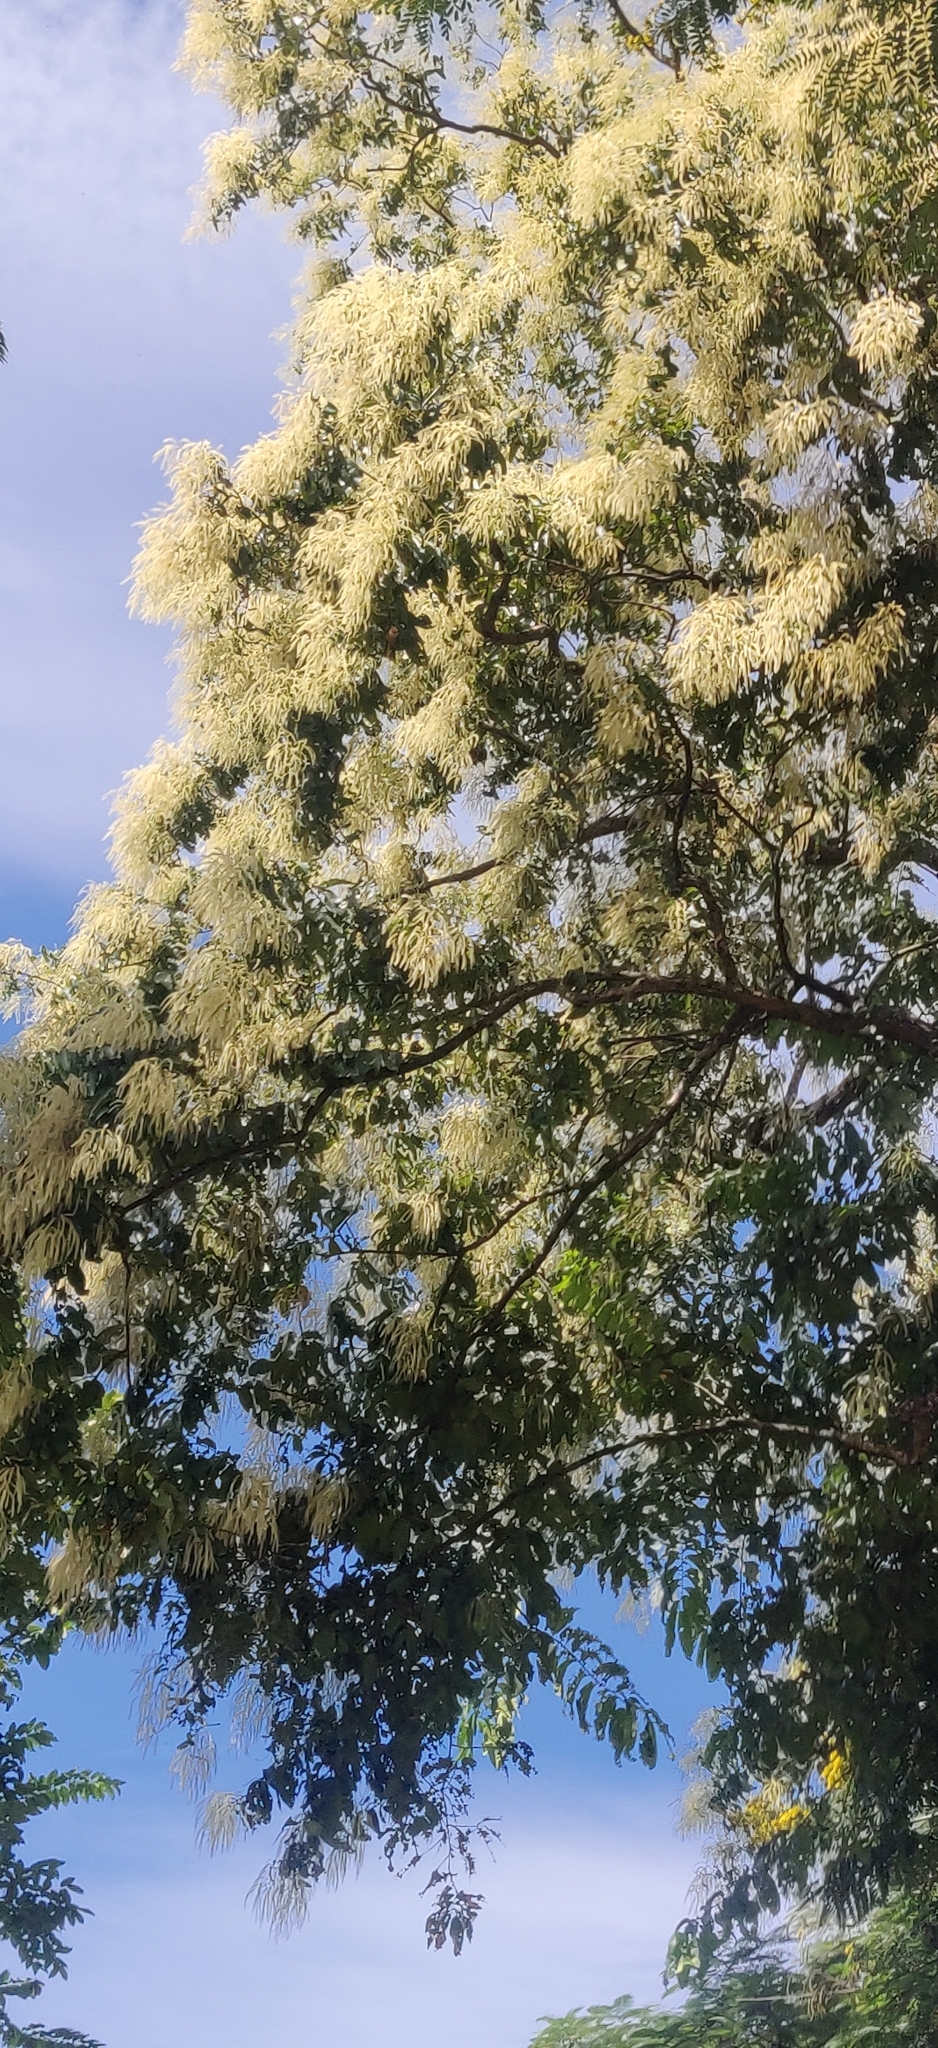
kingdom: Plantae
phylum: Tracheophyta
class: Magnoliopsida
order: Myrtales
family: Combretaceae
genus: Terminalia
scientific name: Terminalia myriocarpa
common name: Hollock
